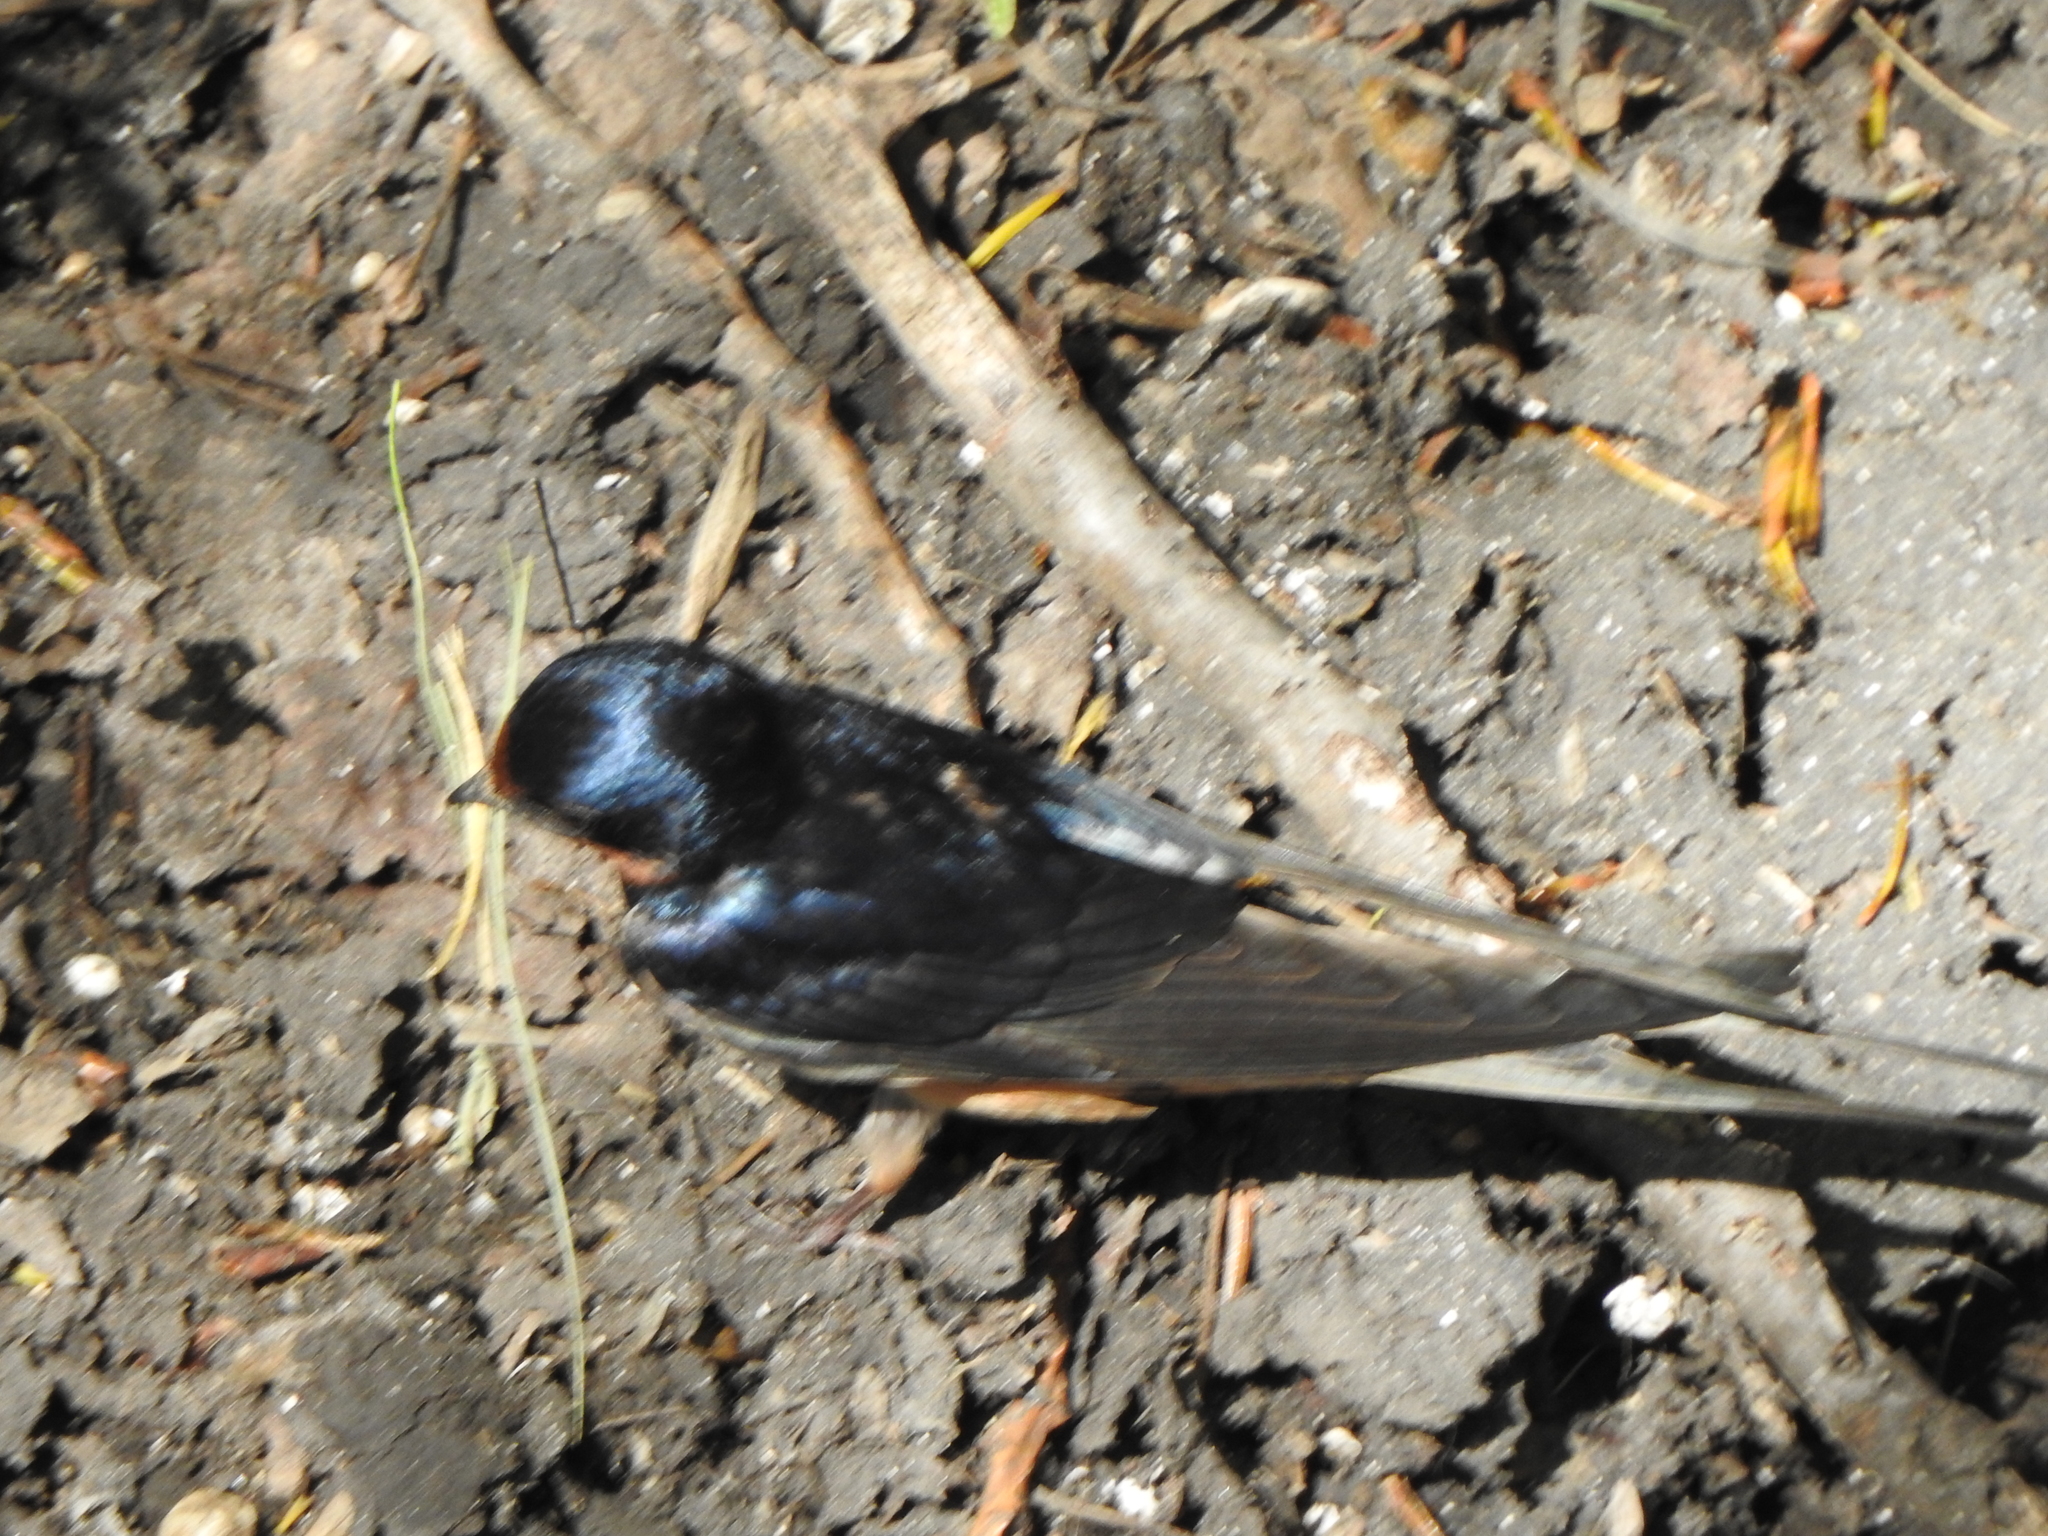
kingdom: Animalia
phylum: Chordata
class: Aves
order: Passeriformes
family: Hirundinidae
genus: Hirundo
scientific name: Hirundo rustica
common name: Barn swallow
